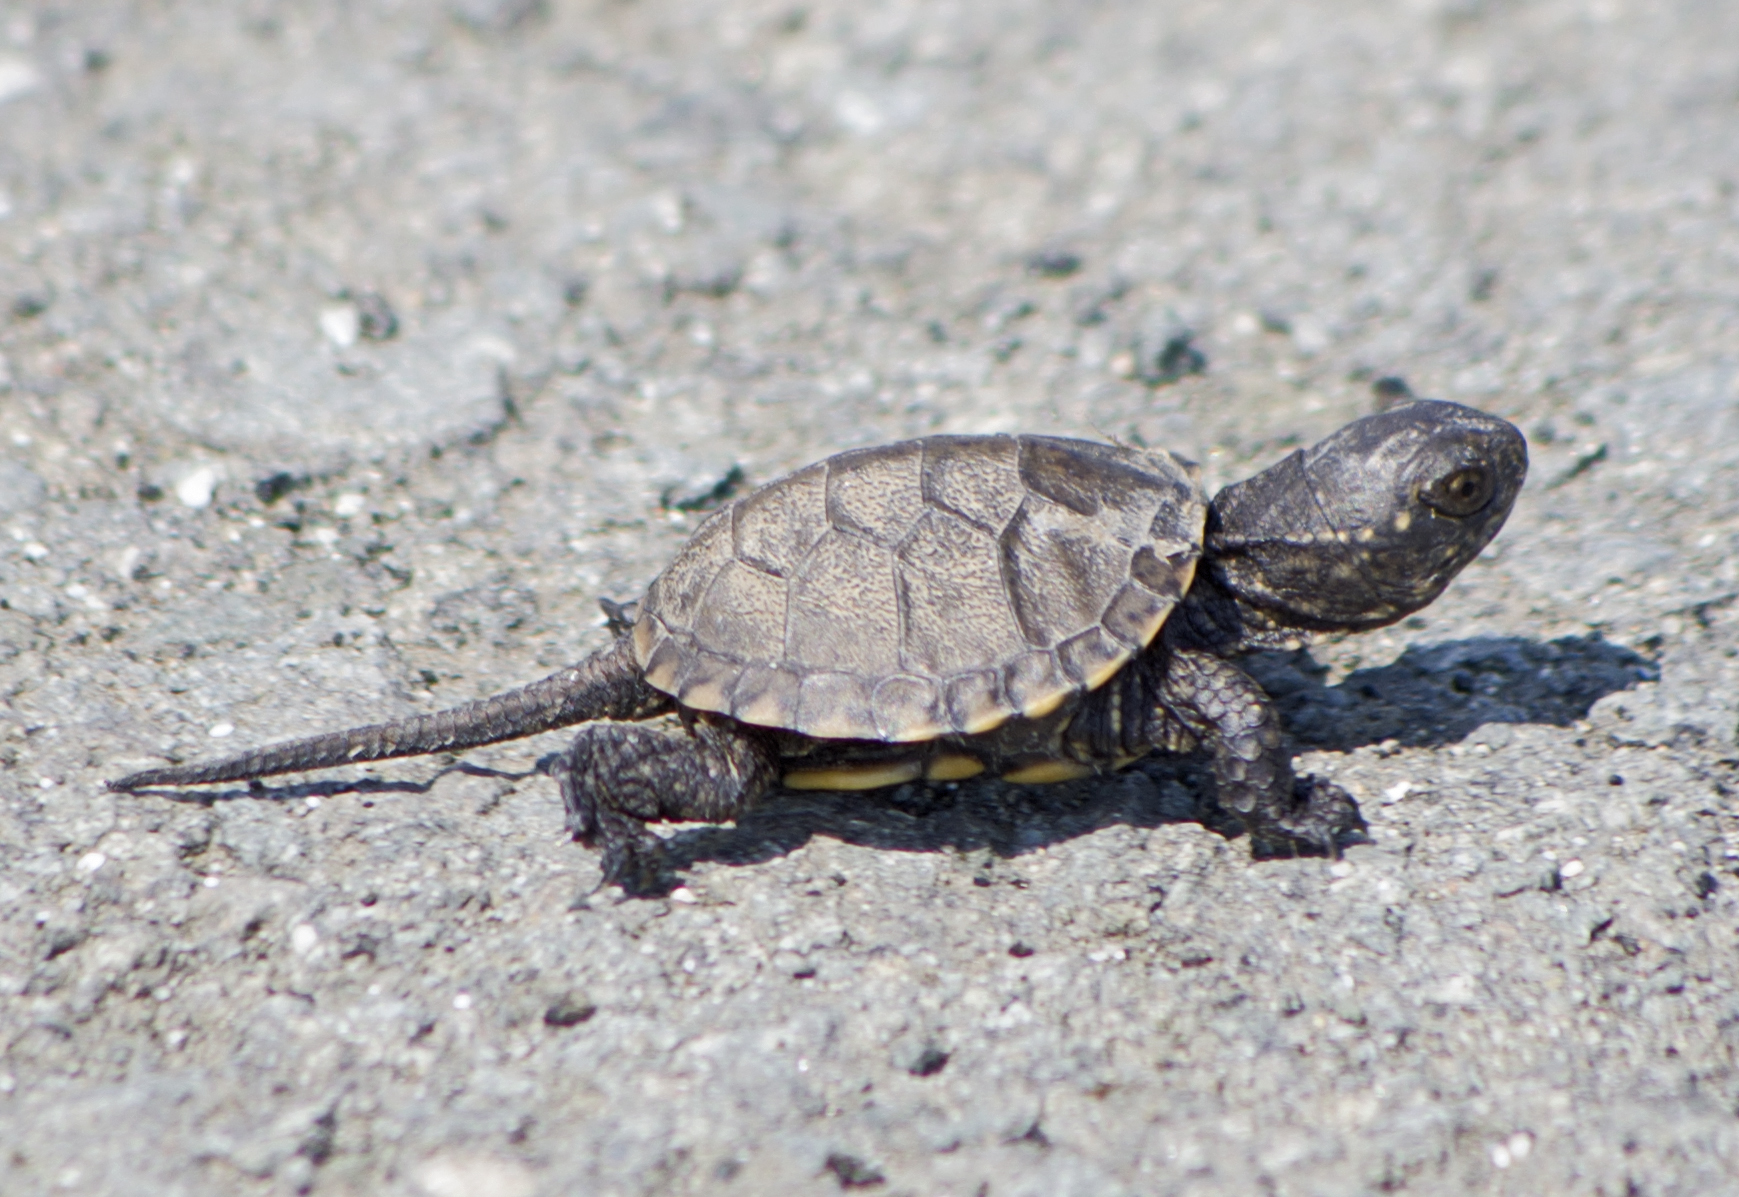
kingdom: Animalia
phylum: Chordata
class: Testudines
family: Emydidae
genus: Emys
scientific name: Emys orbicularis
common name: European pond turtle
